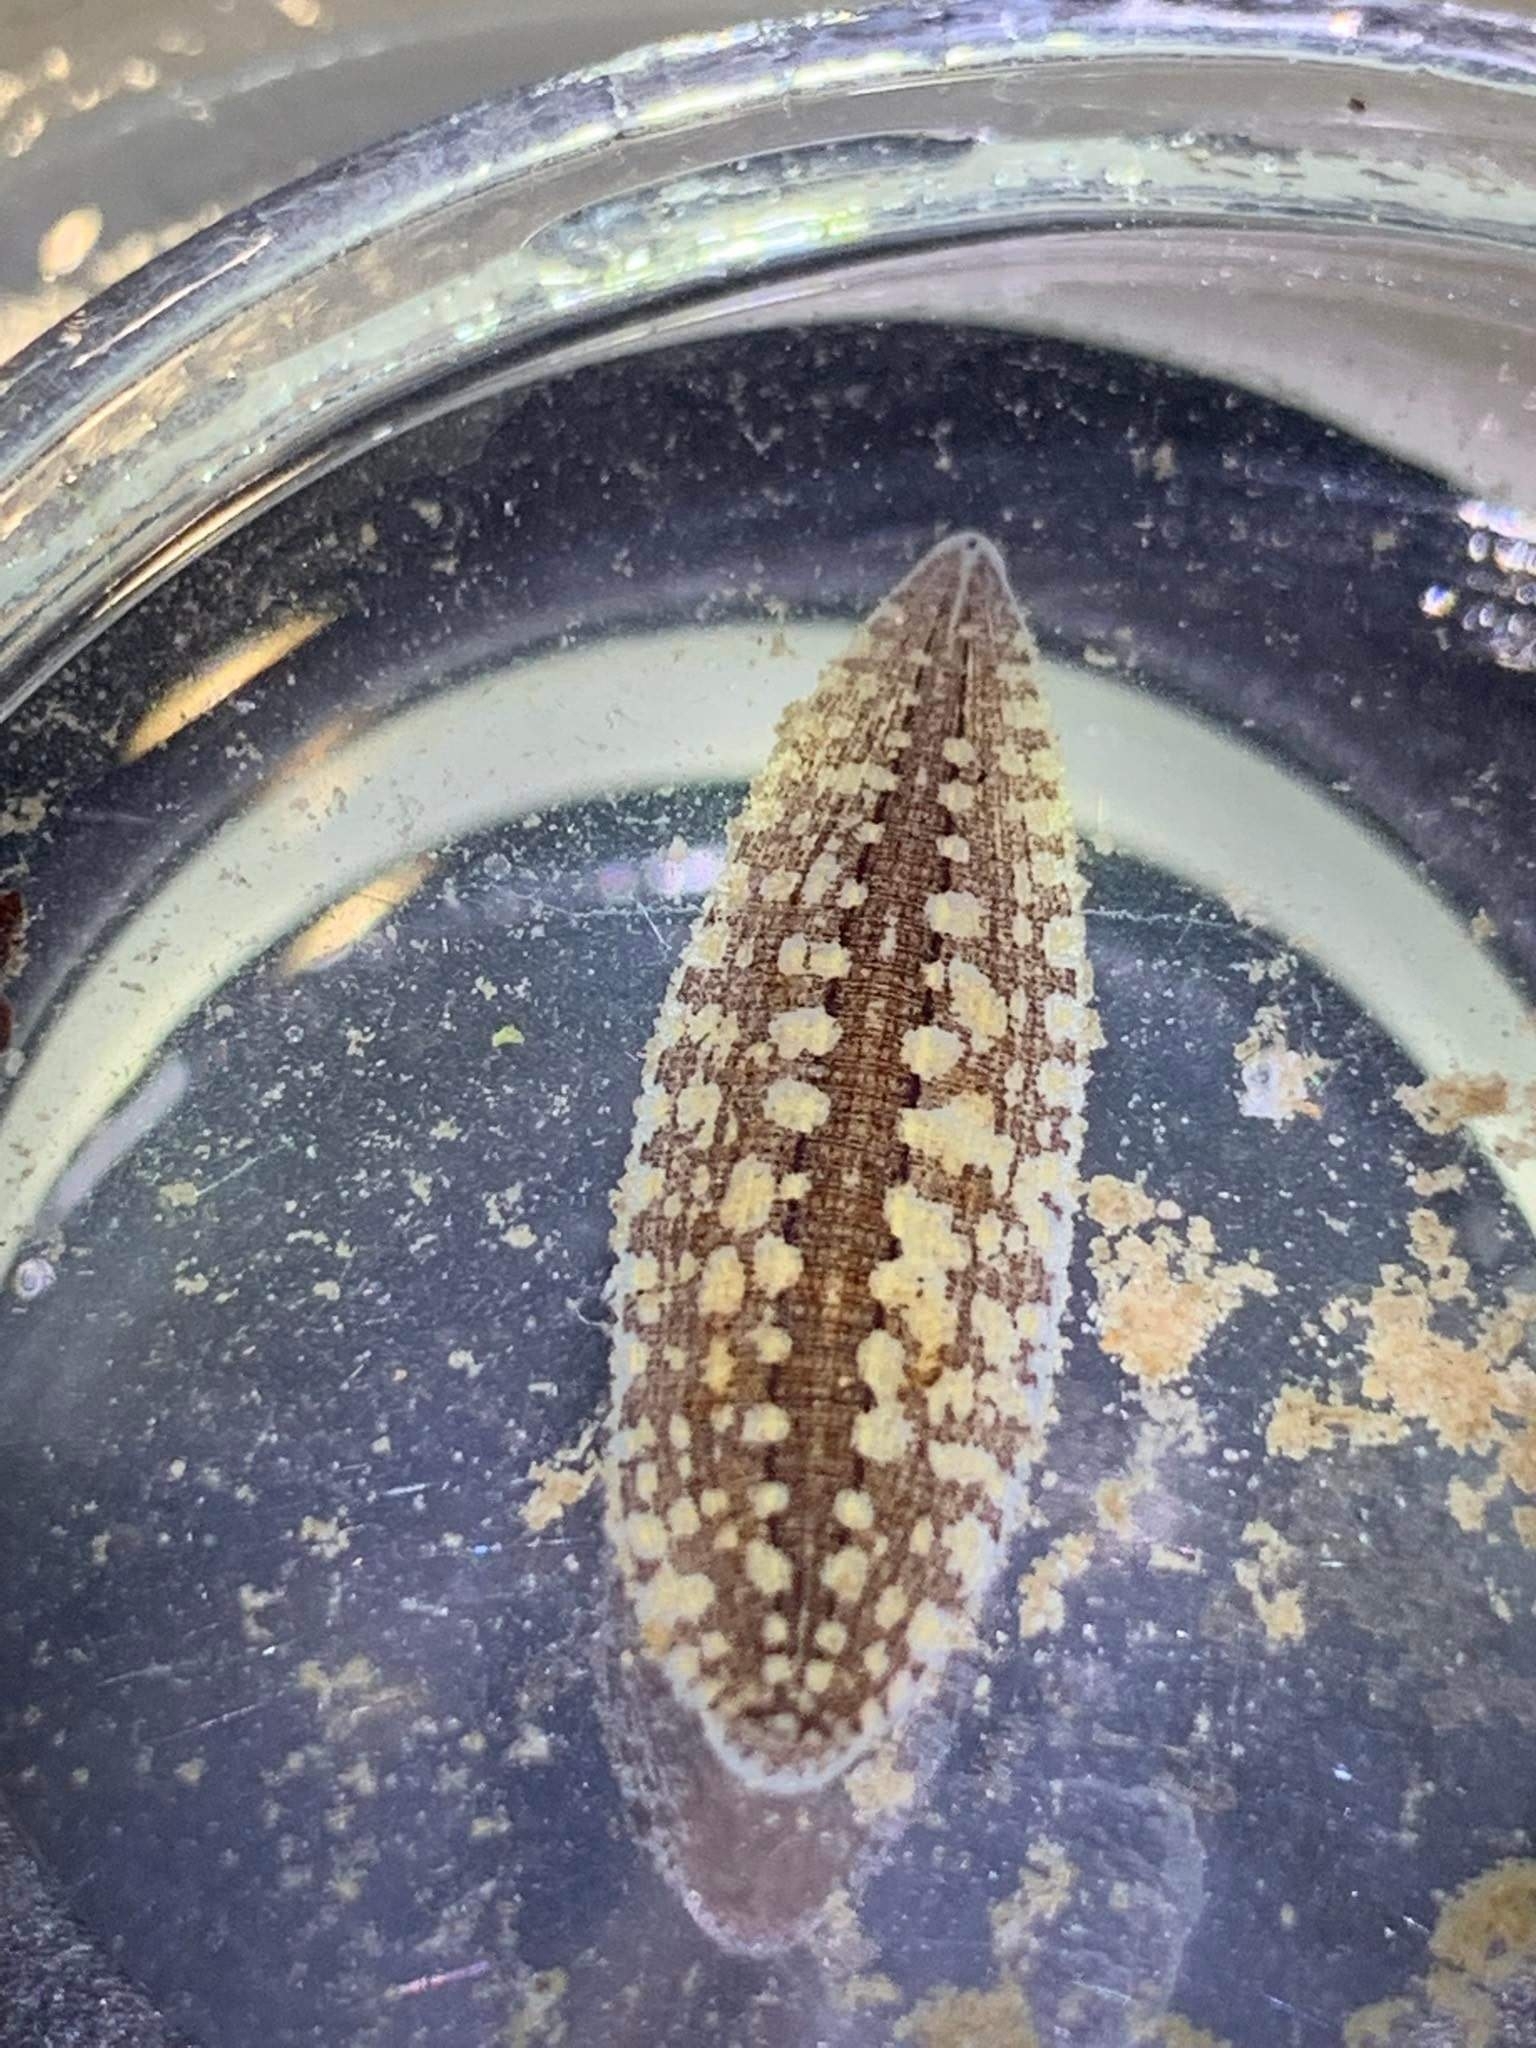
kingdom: Animalia
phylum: Annelida
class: Clitellata
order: Rhynchobdellida
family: Glossiphoniidae
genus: Glossiphonia
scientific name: Glossiphonia complanata
